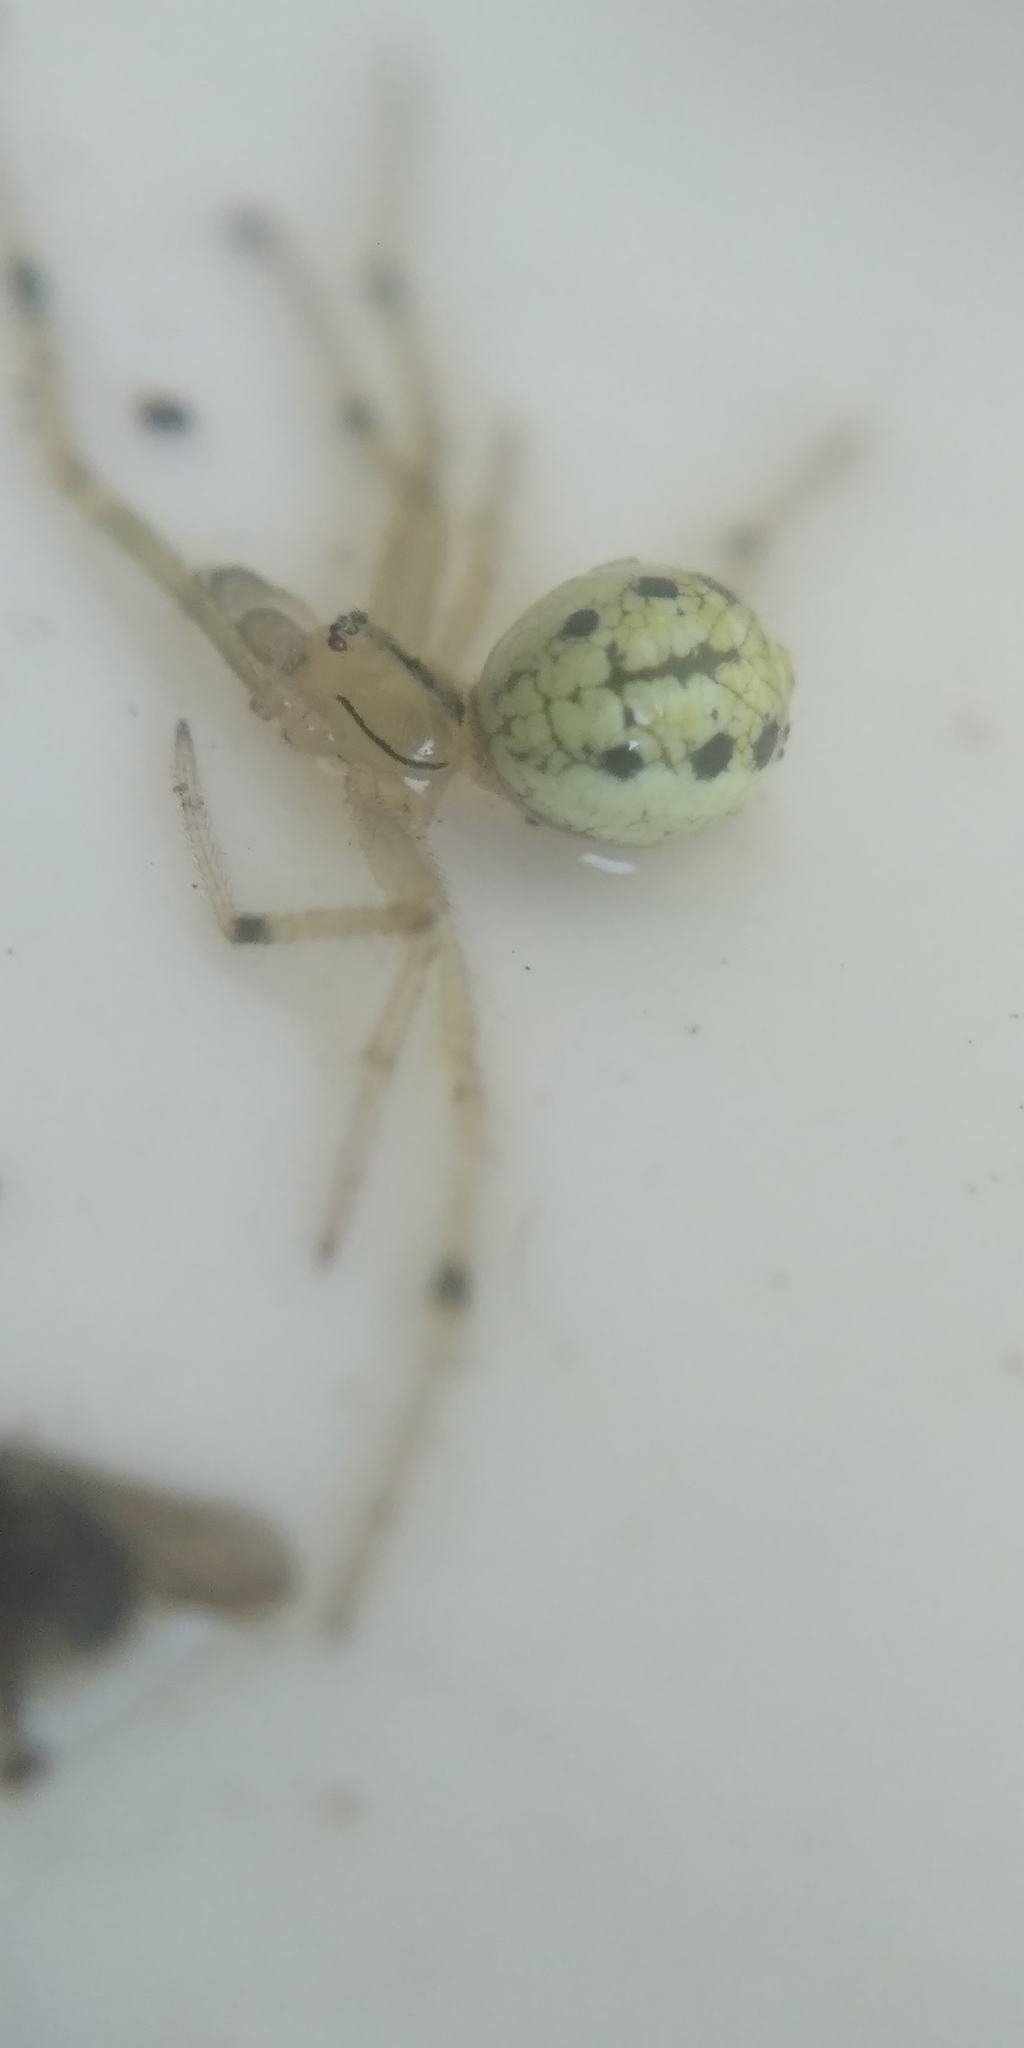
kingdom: Animalia
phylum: Arthropoda
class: Arachnida
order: Araneae
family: Theridiidae
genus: Enoplognatha
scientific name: Enoplognatha ovata
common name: Common candy-striped spider
